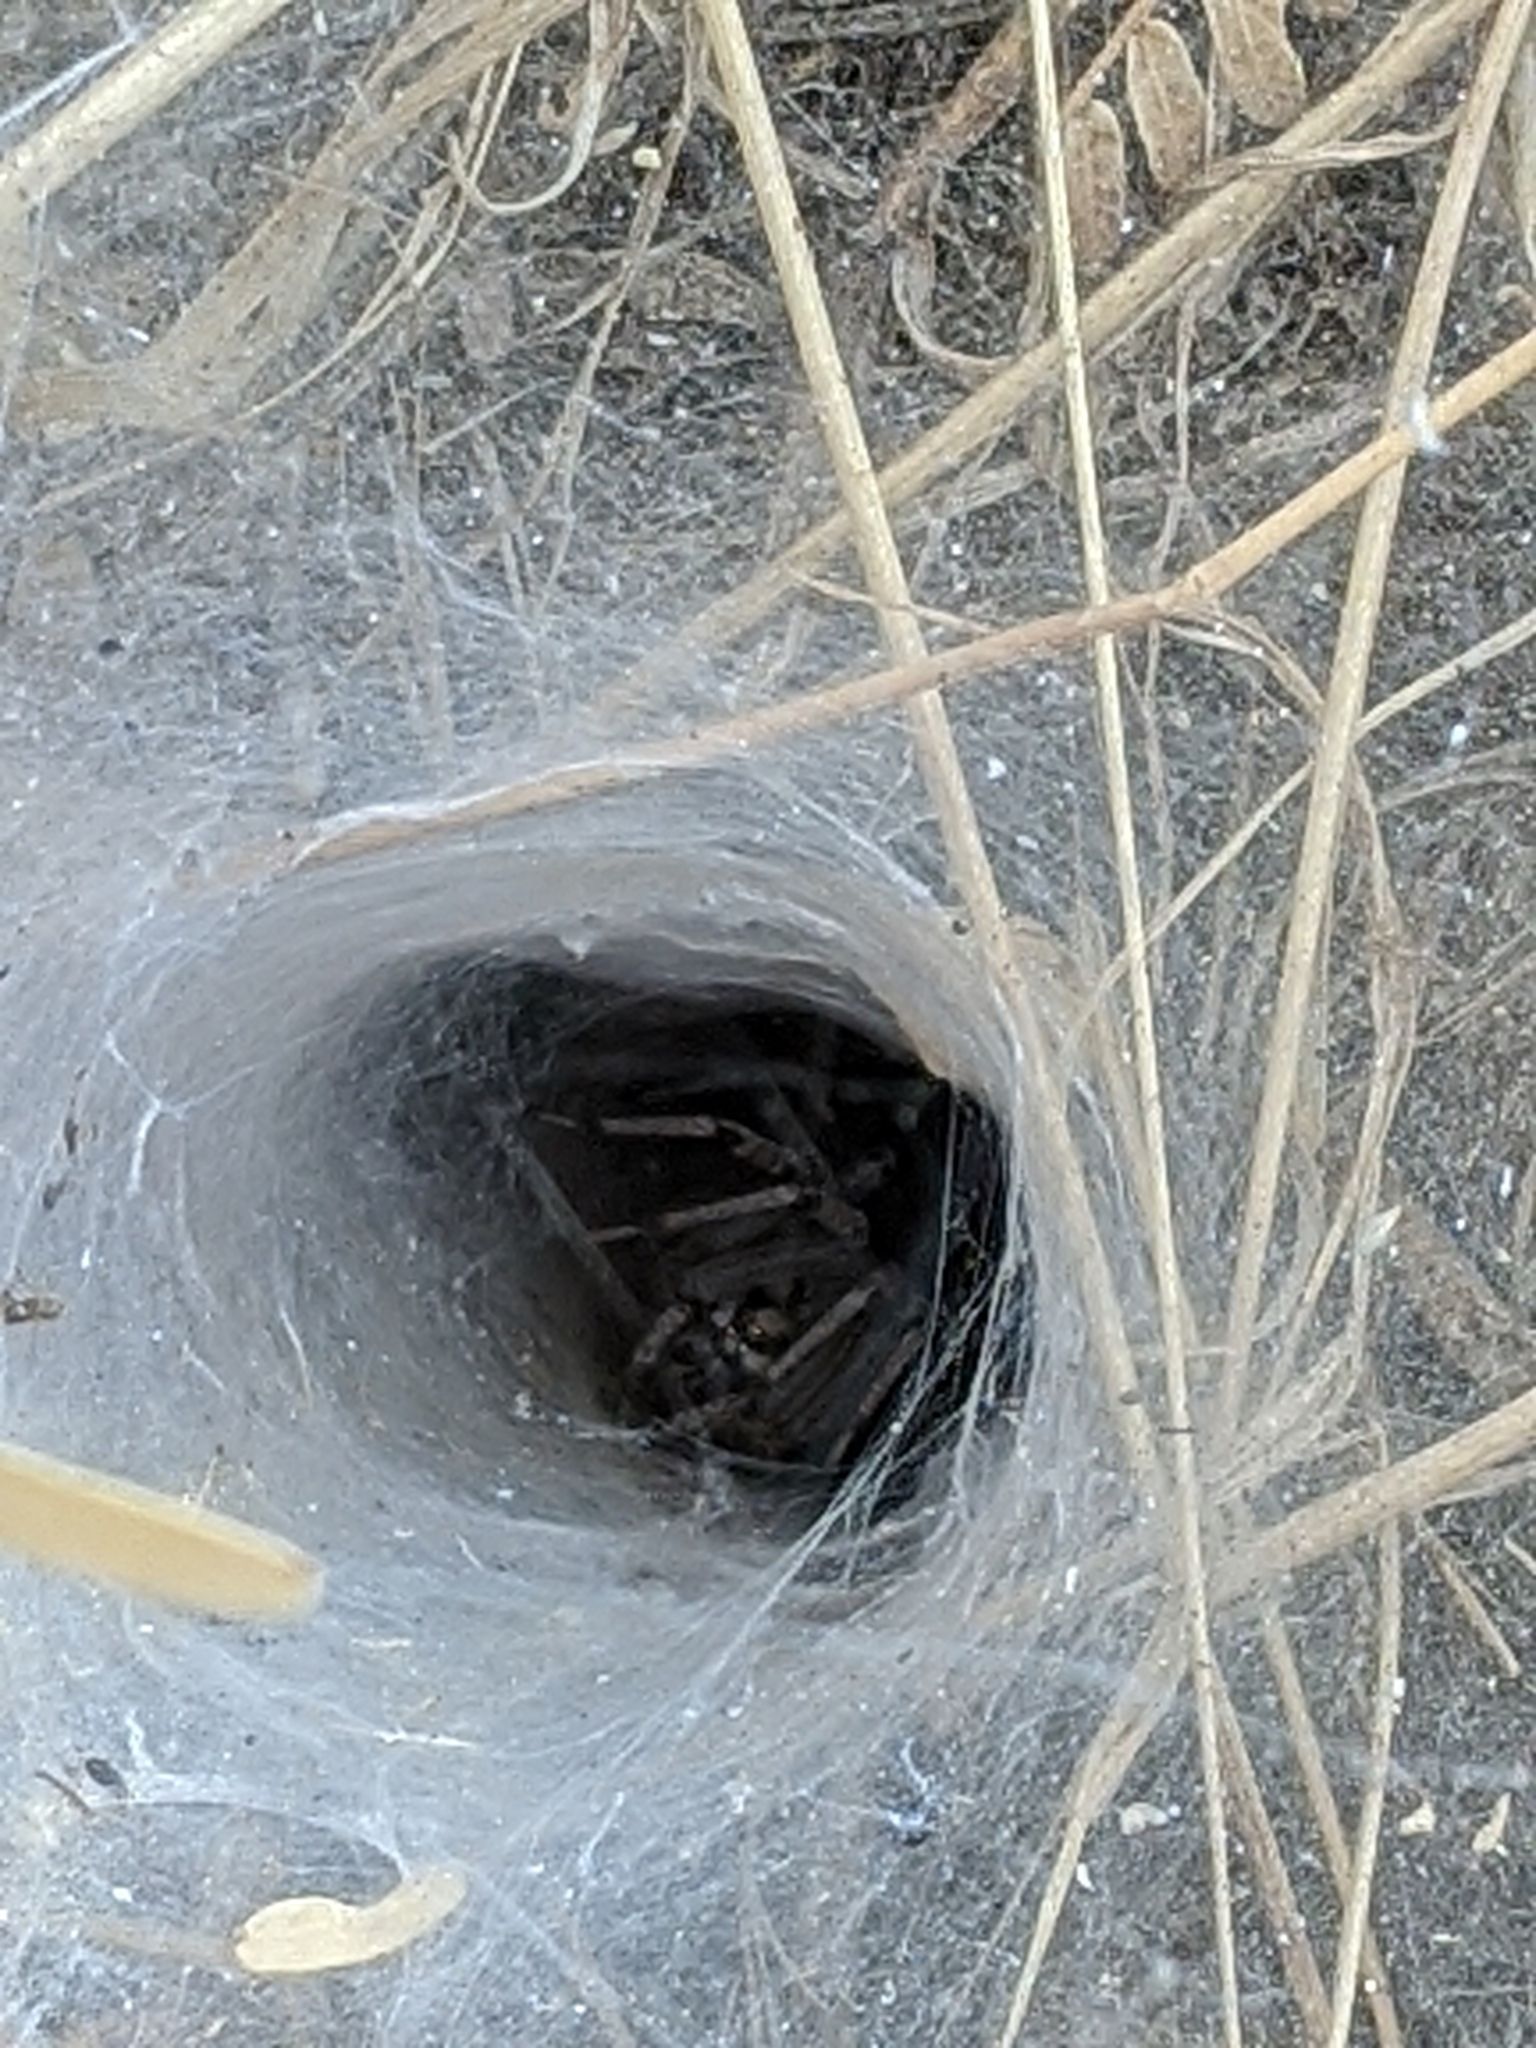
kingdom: Animalia
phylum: Arthropoda
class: Arachnida
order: Araneae
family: Lycosidae
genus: Sosippus
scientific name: Sosippus californicus
